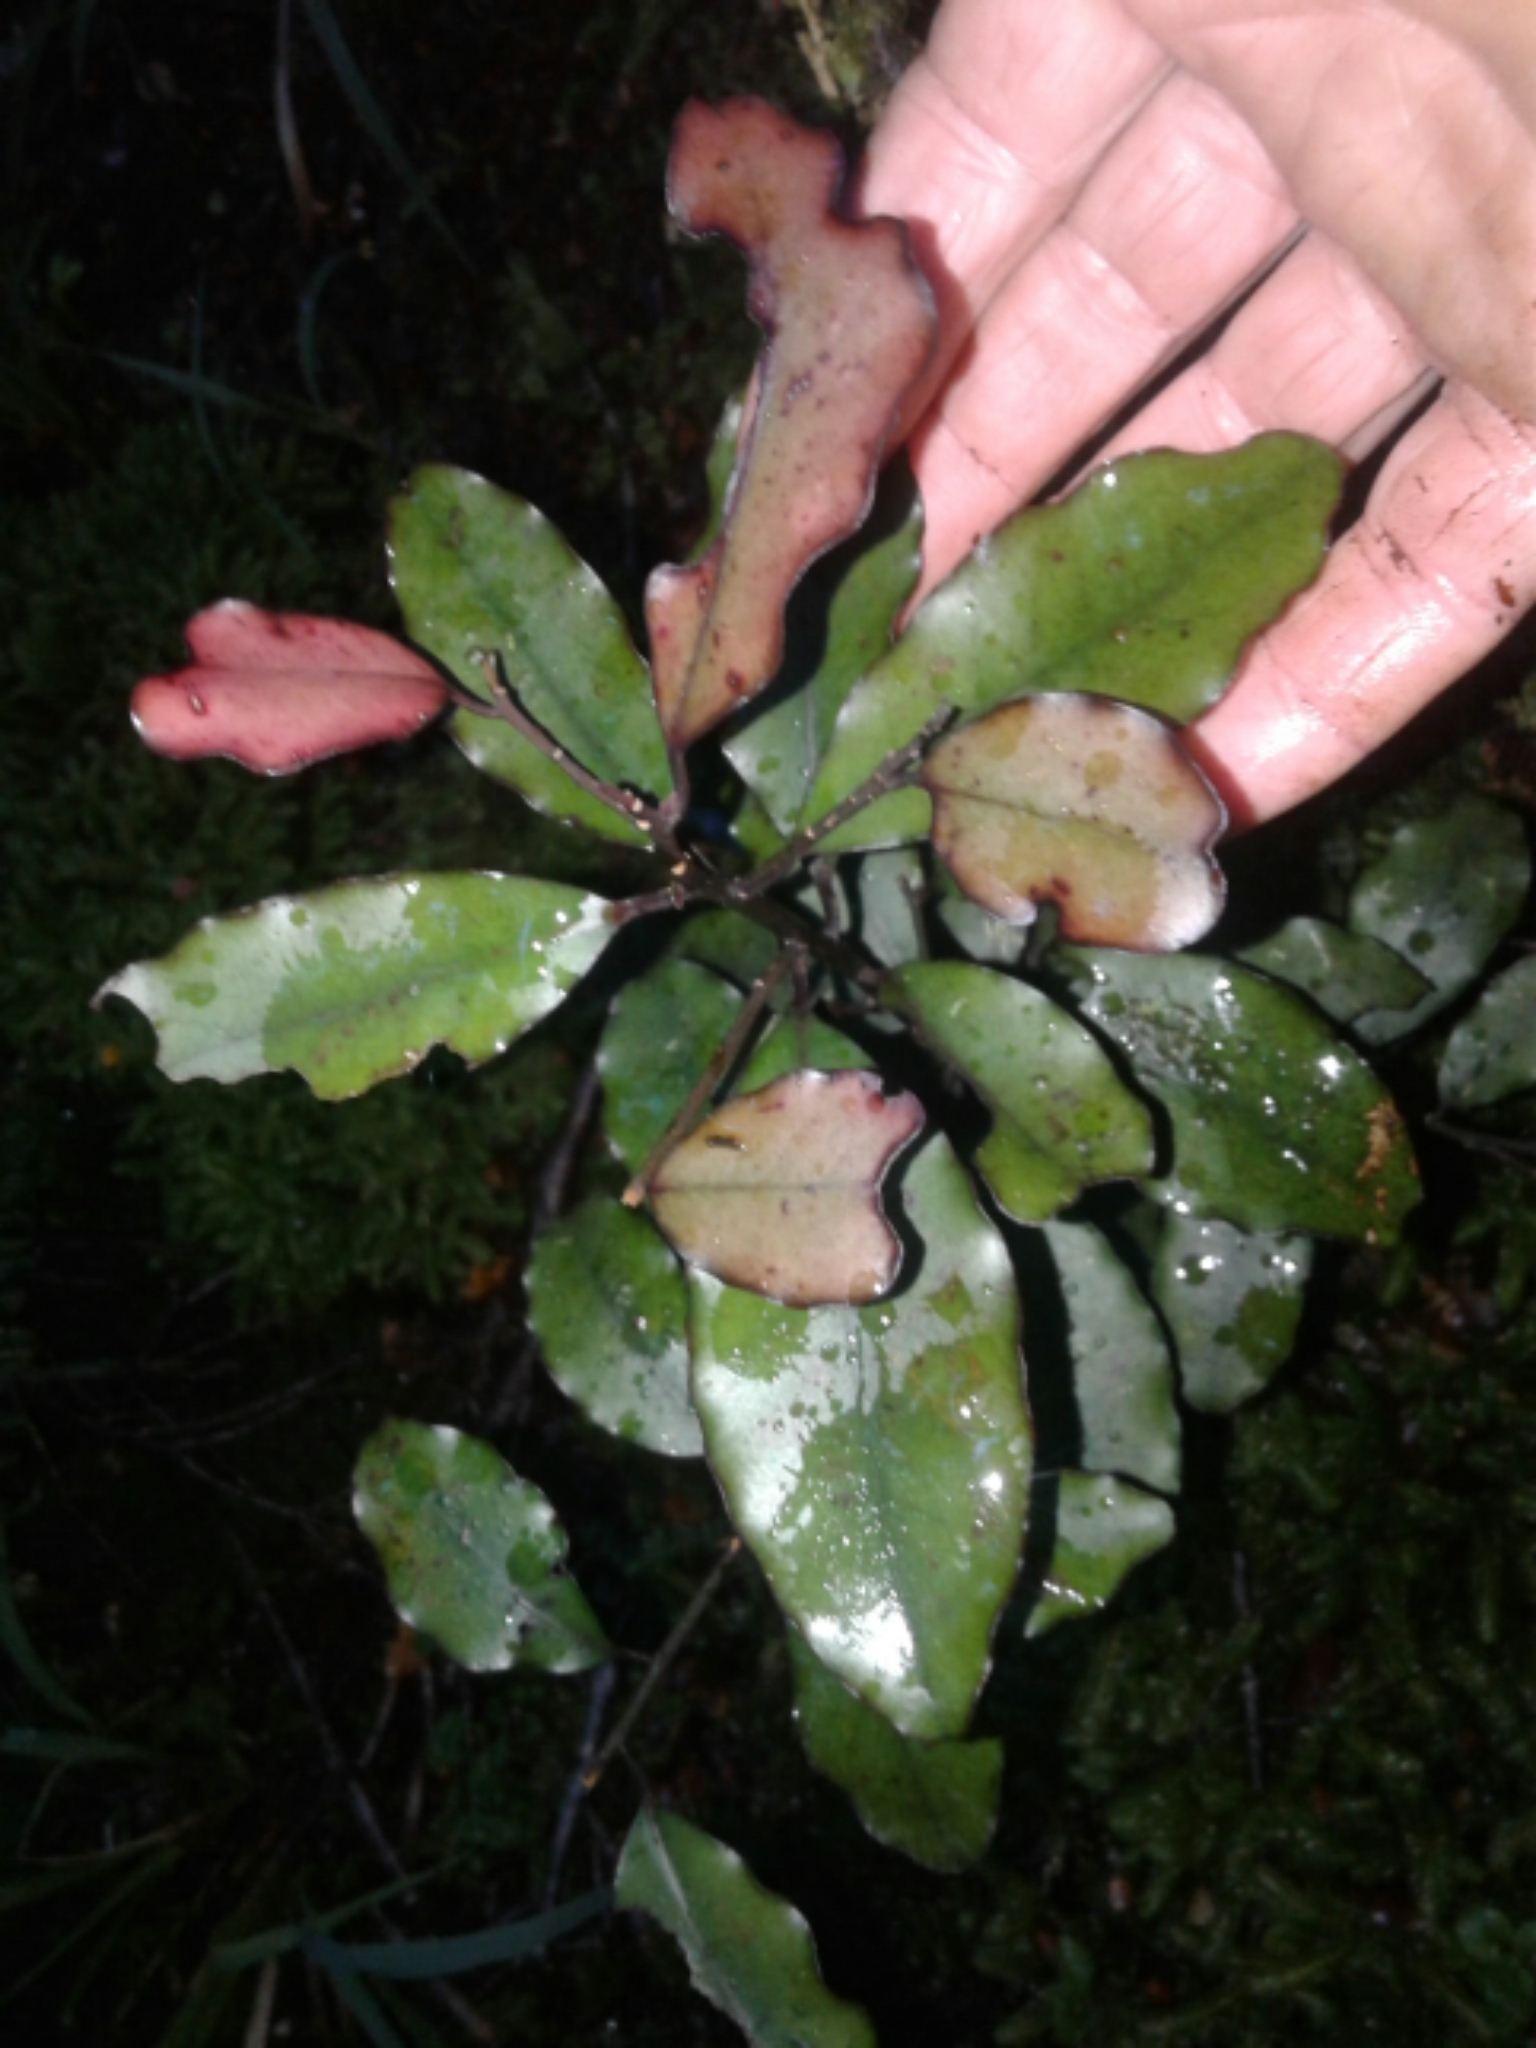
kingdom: Plantae
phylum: Tracheophyta
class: Magnoliopsida
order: Canellales
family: Winteraceae
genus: Pseudowintera
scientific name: Pseudowintera colorata
